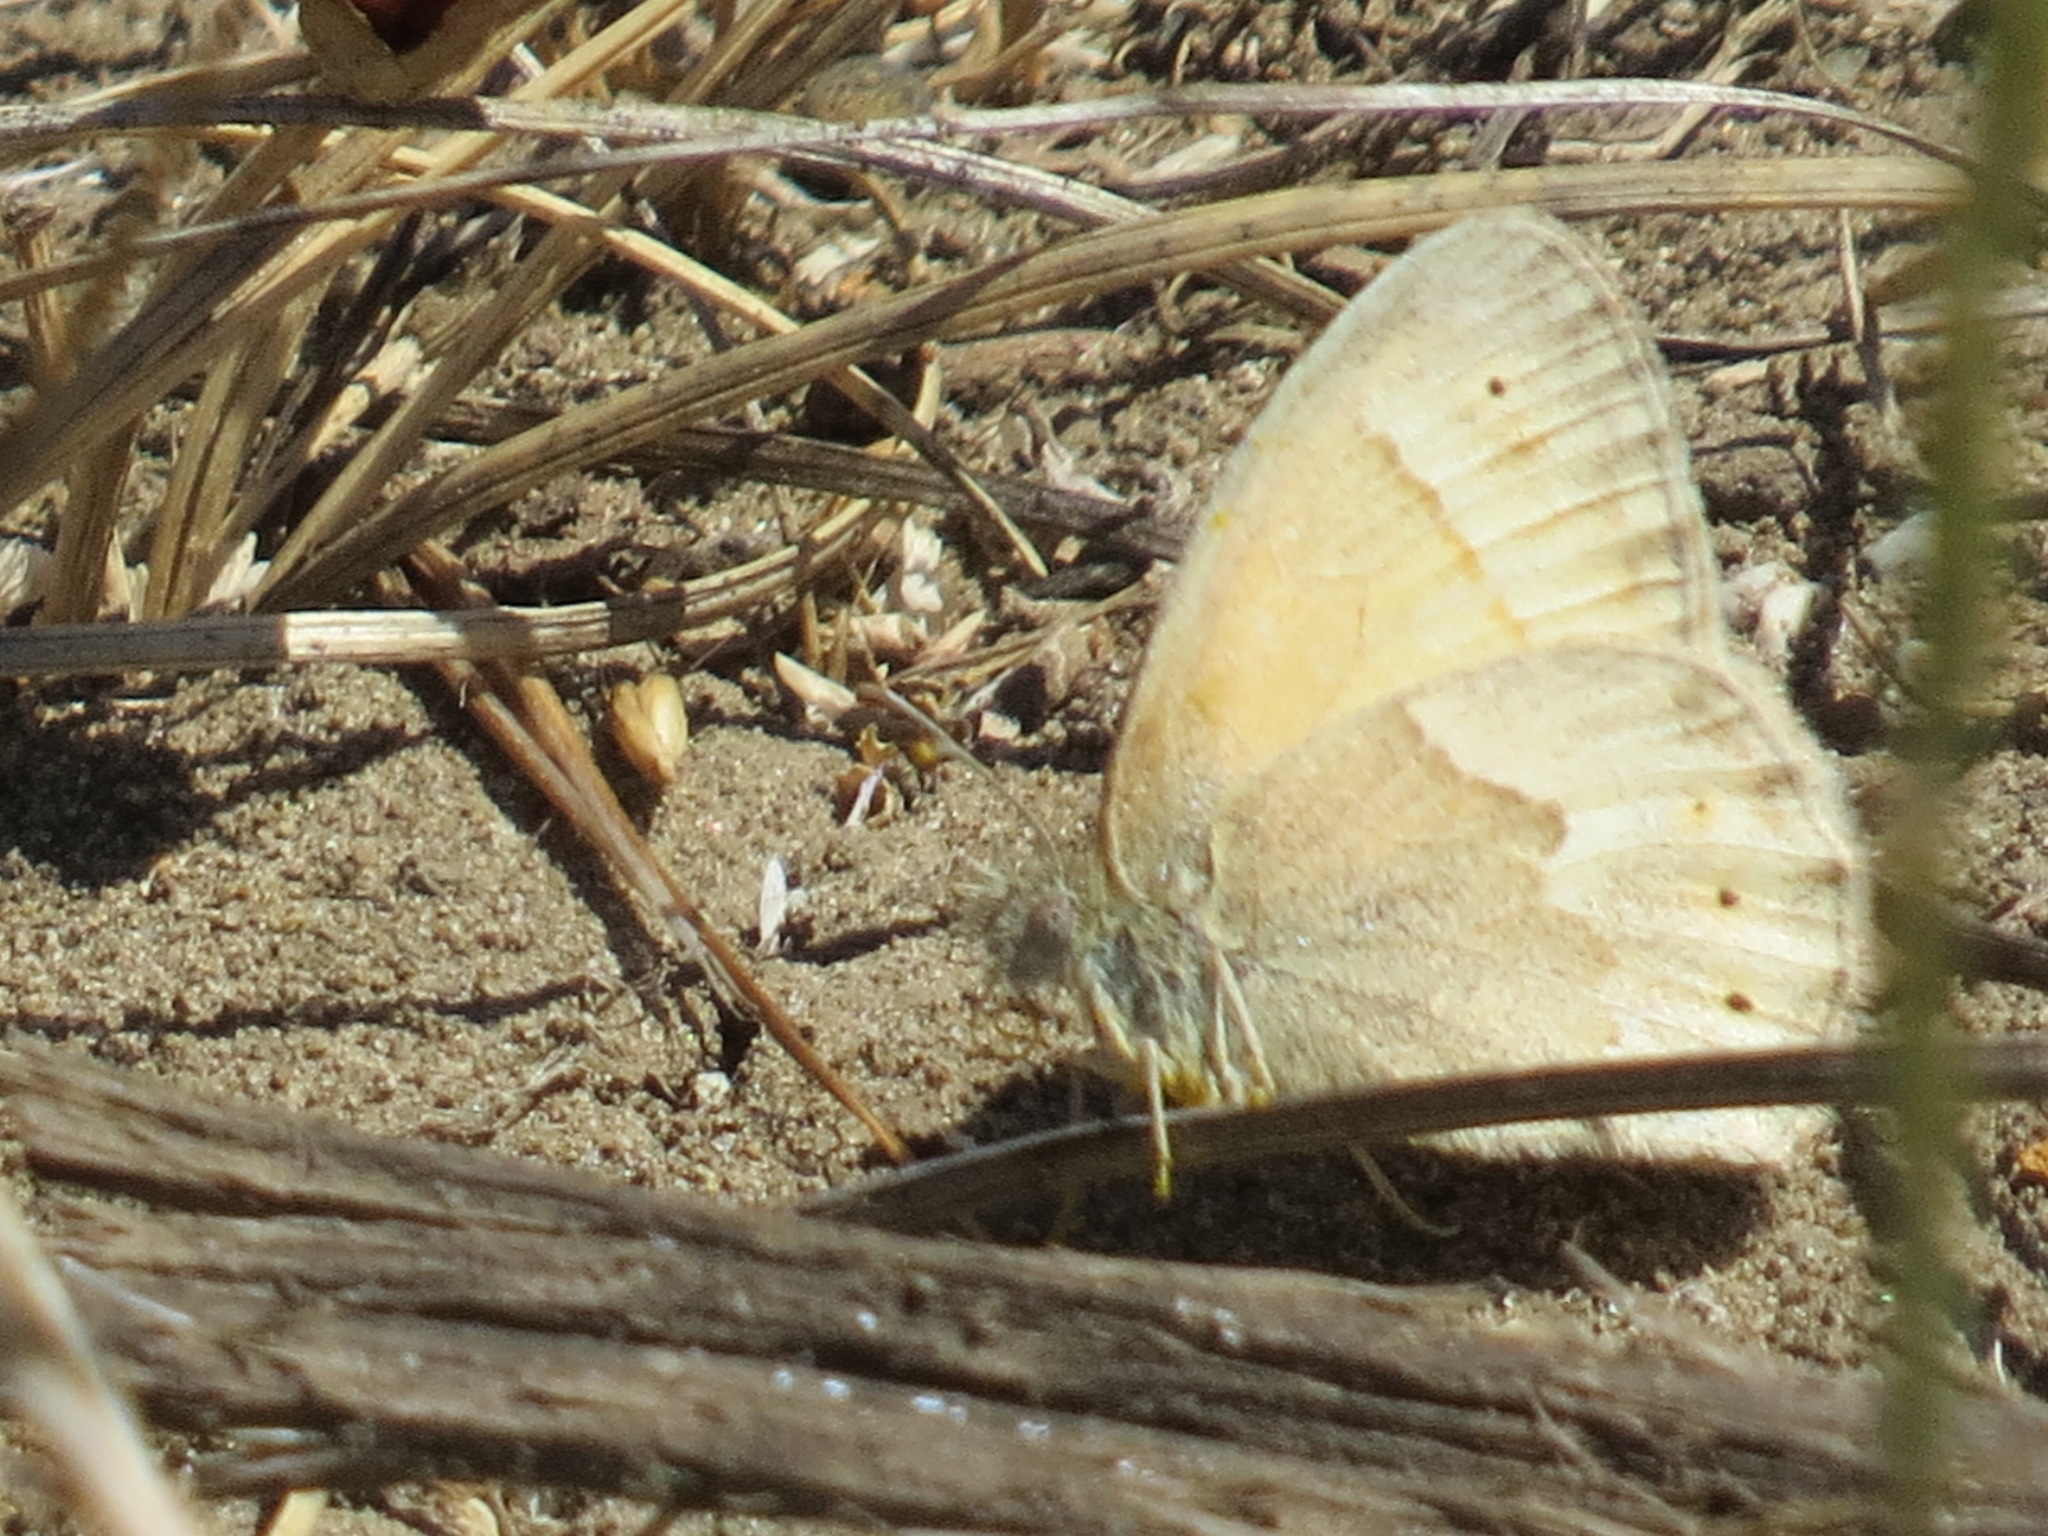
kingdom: Animalia
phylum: Arthropoda
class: Insecta
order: Lepidoptera
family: Nymphalidae
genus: Coenonympha
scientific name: Coenonympha california
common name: Common ringlet
